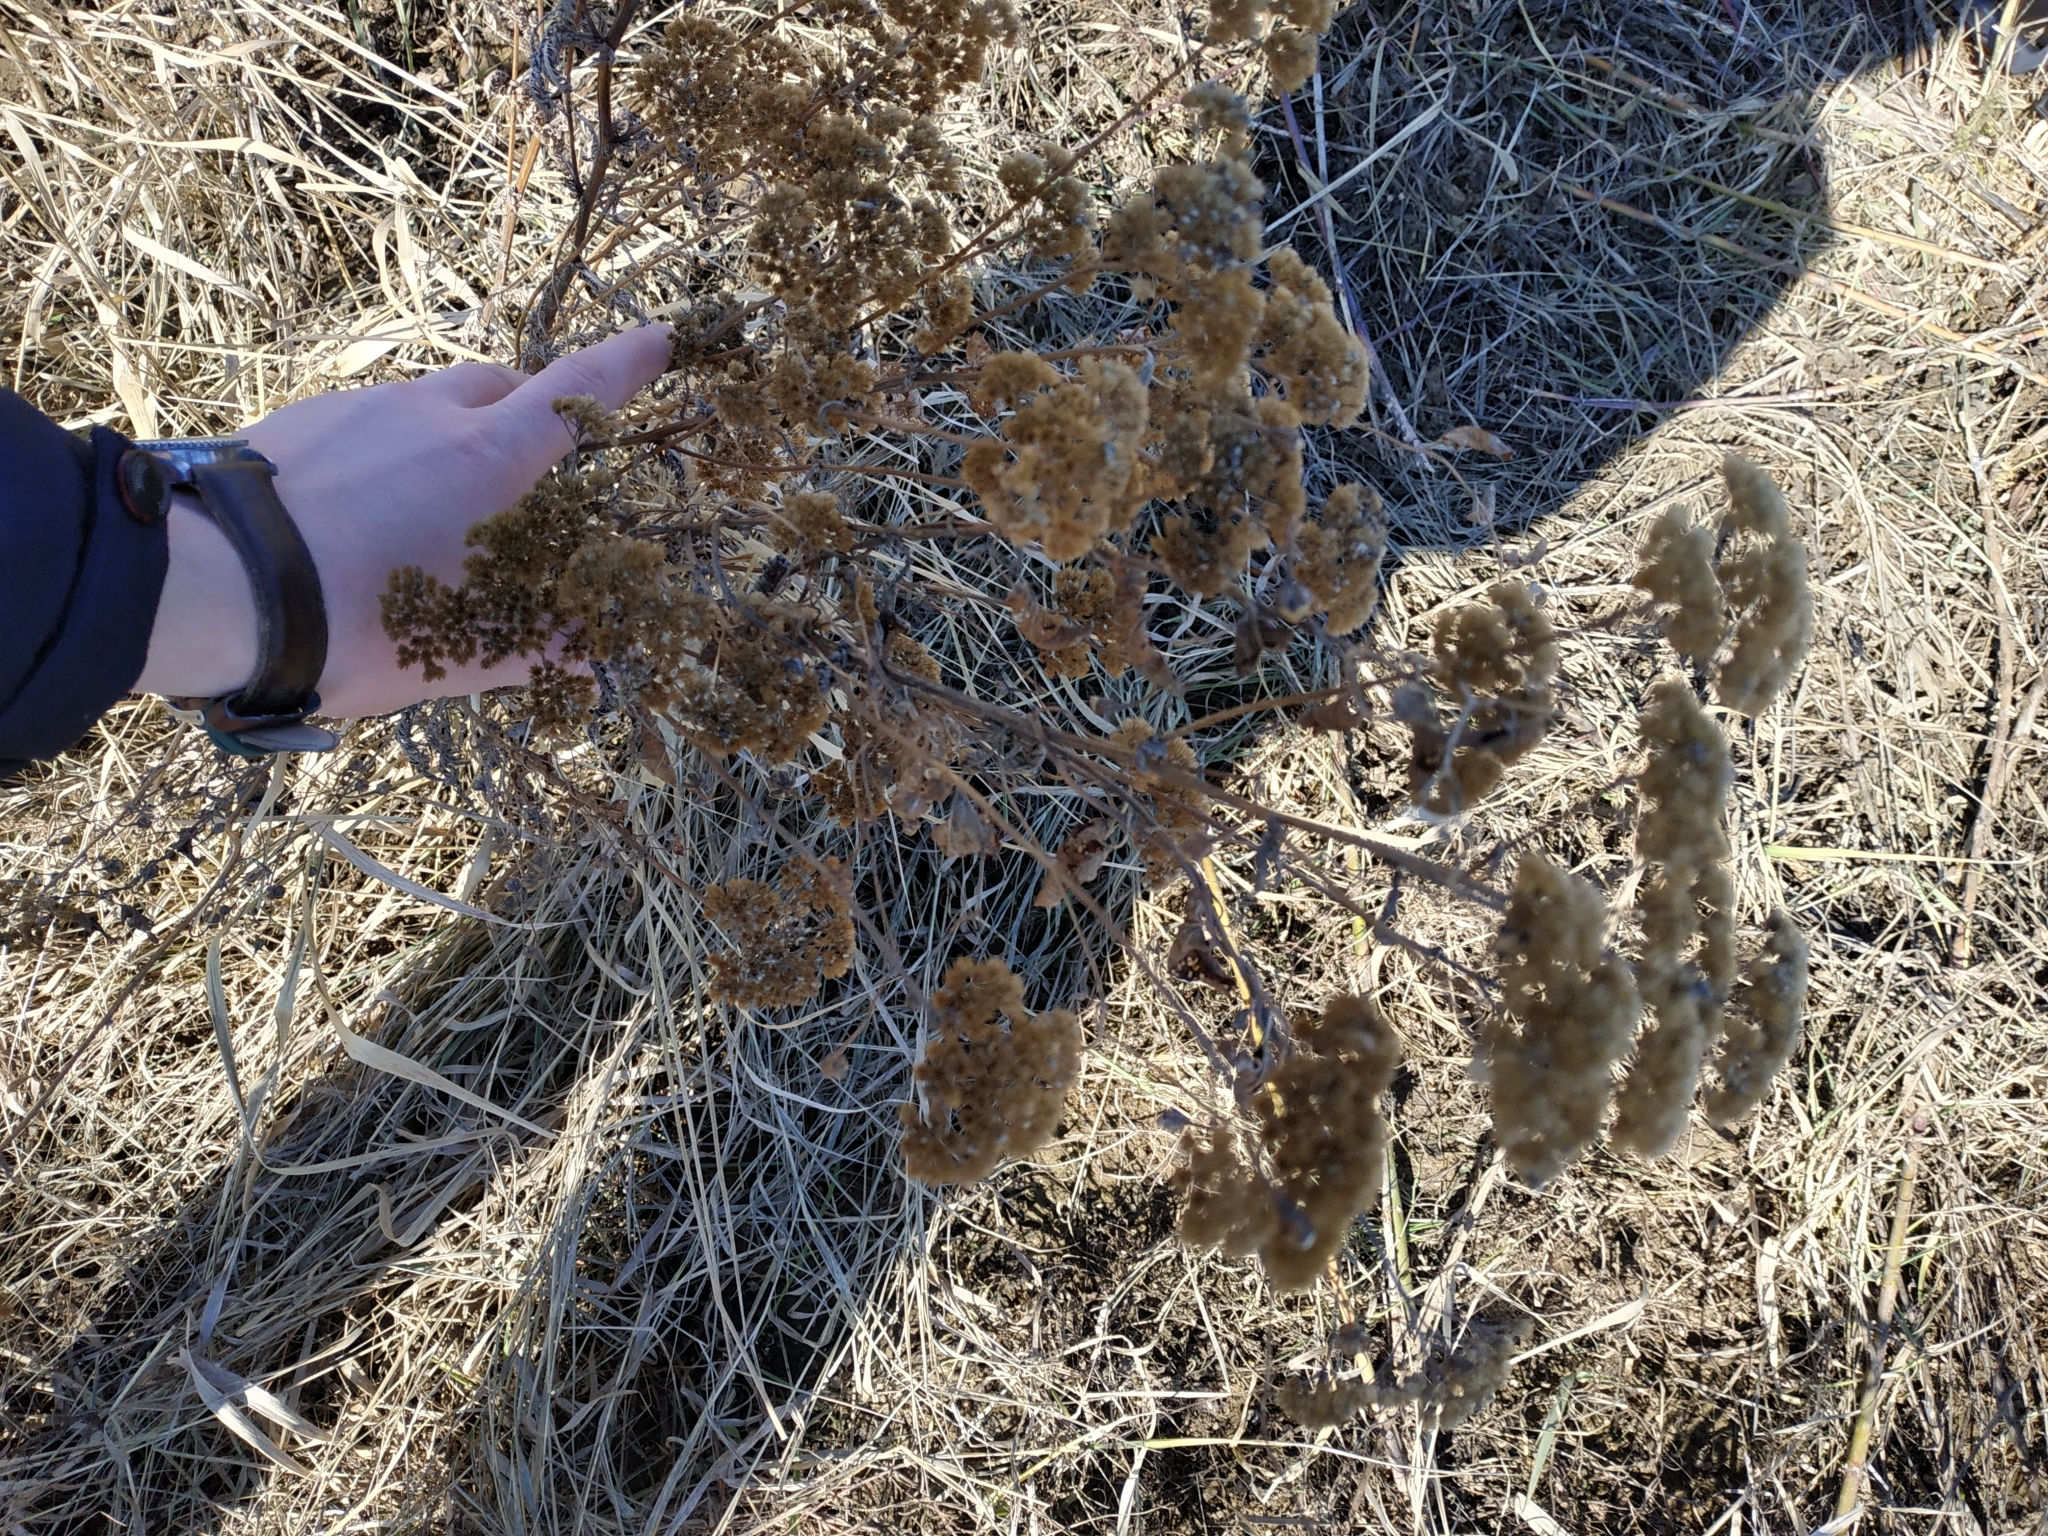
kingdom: Plantae
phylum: Tracheophyta
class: Magnoliopsida
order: Asterales
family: Asteraceae
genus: Tanacetum
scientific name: Tanacetum vulgare
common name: Common tansy
